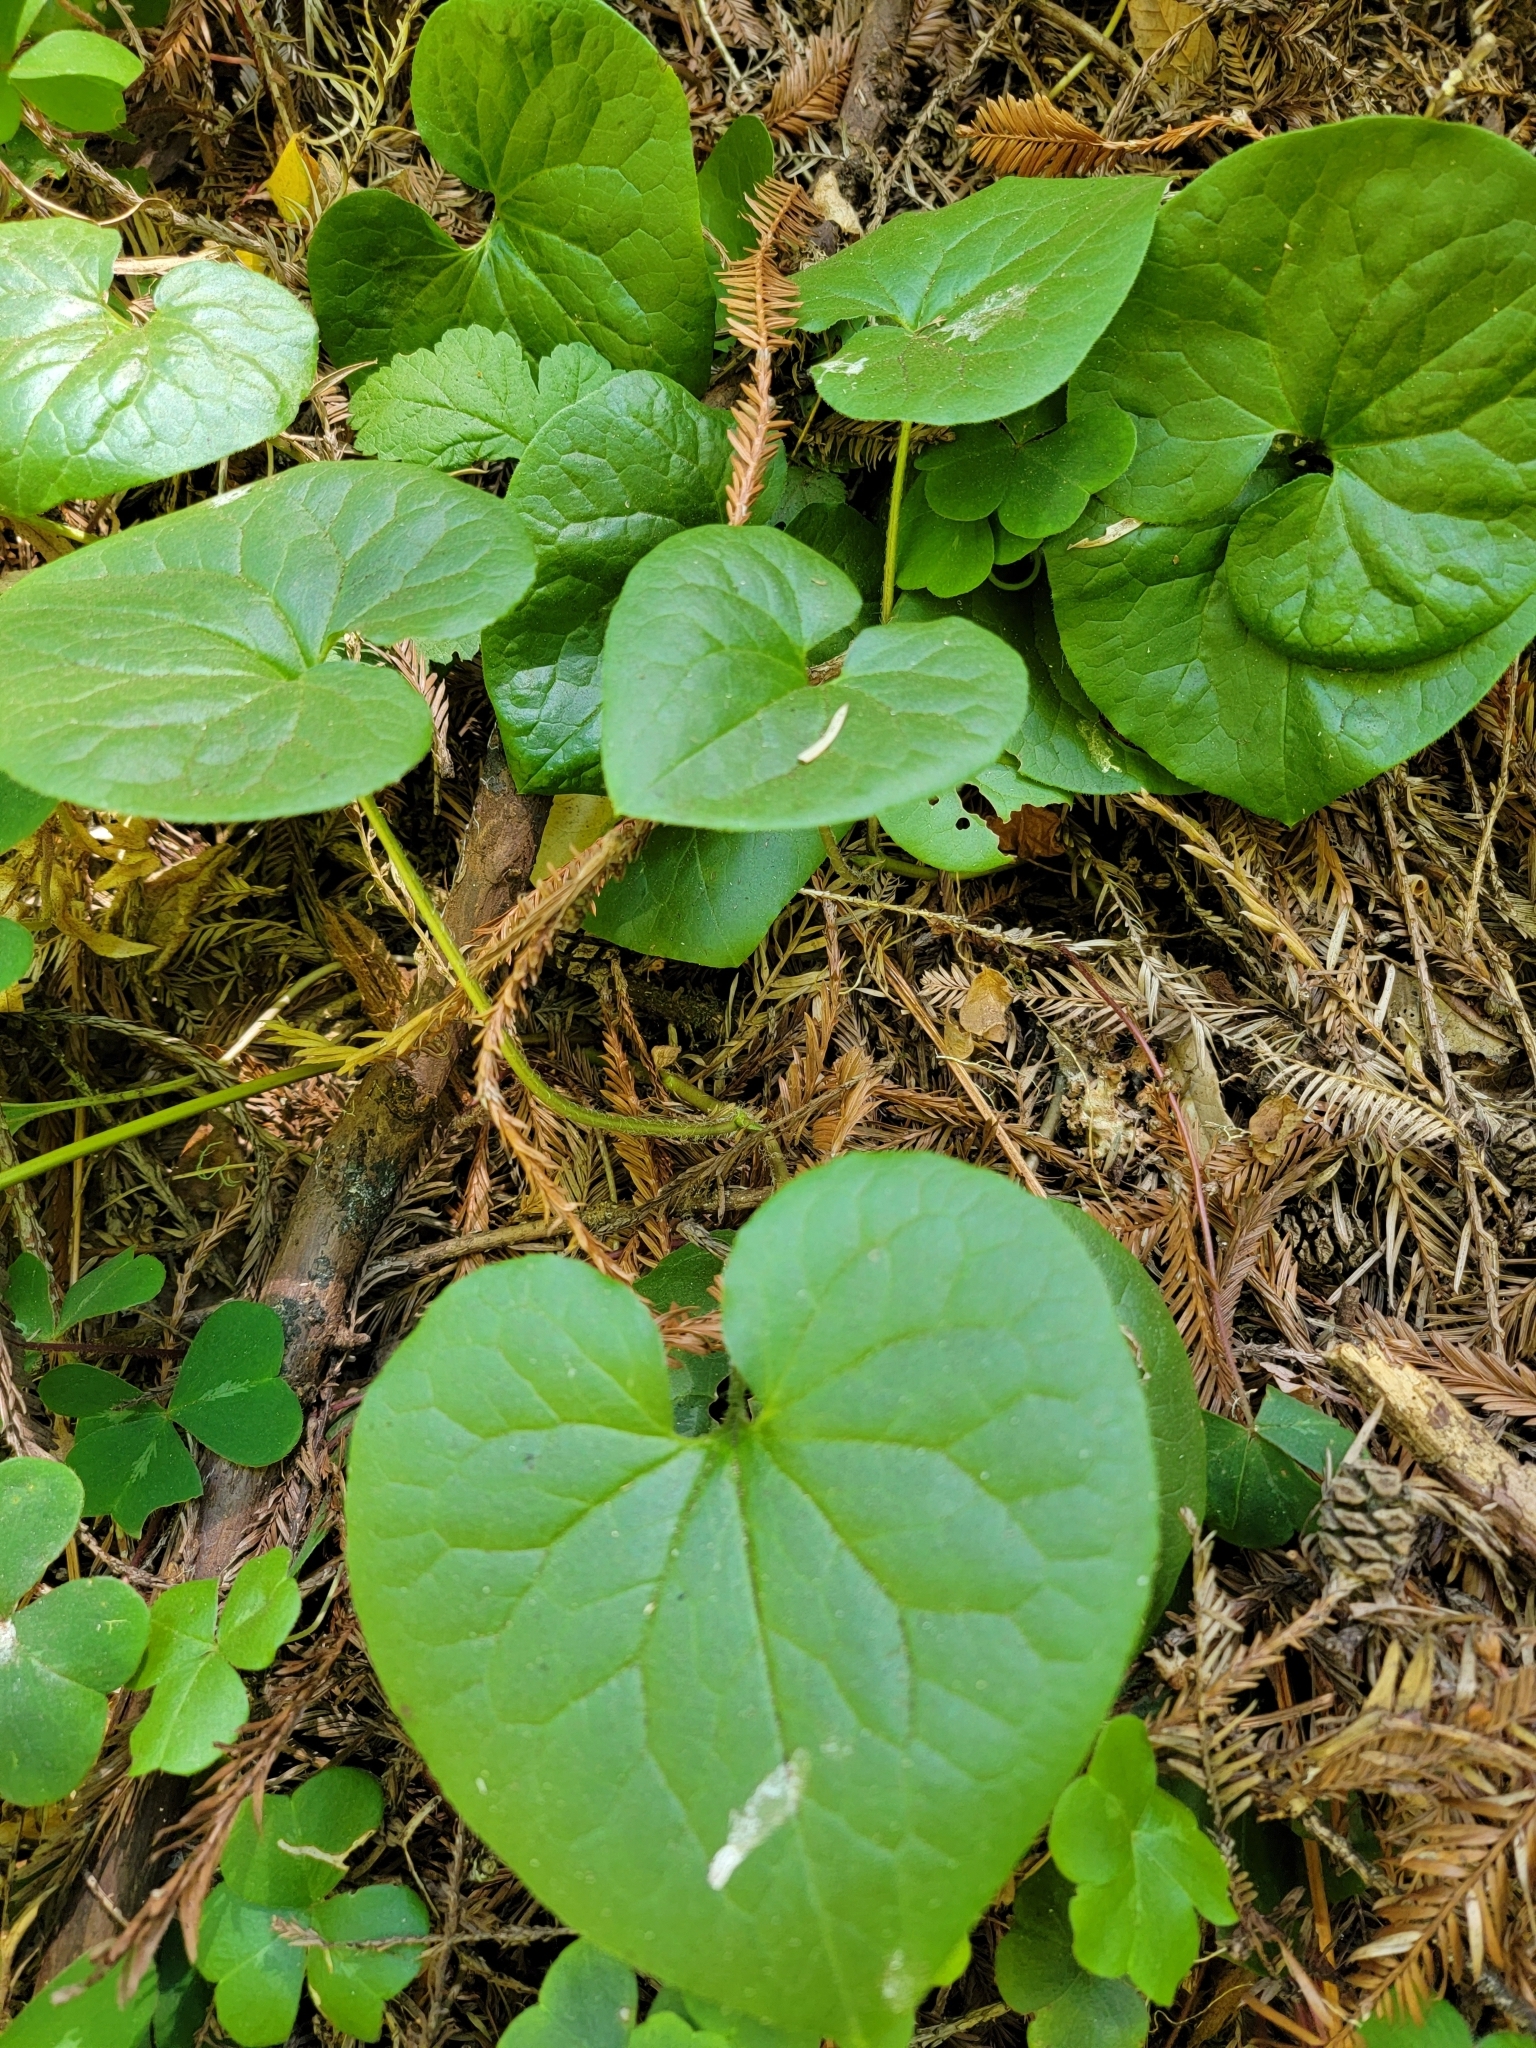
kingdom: Plantae
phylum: Tracheophyta
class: Magnoliopsida
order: Piperales
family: Aristolochiaceae
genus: Asarum
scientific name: Asarum caudatum
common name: Wild ginger
